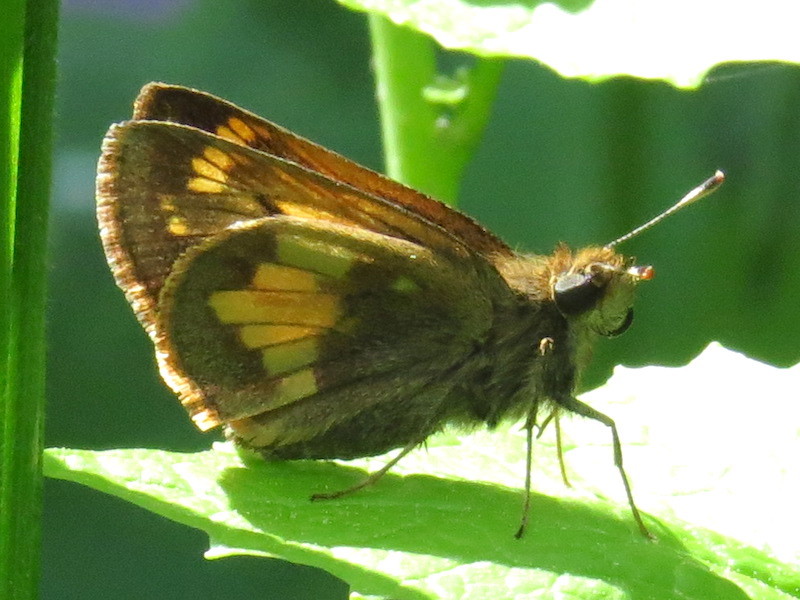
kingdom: Animalia
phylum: Arthropoda
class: Insecta
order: Lepidoptera
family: Hesperiidae
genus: Lon
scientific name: Lon hobomok
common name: Hobomok skipper
